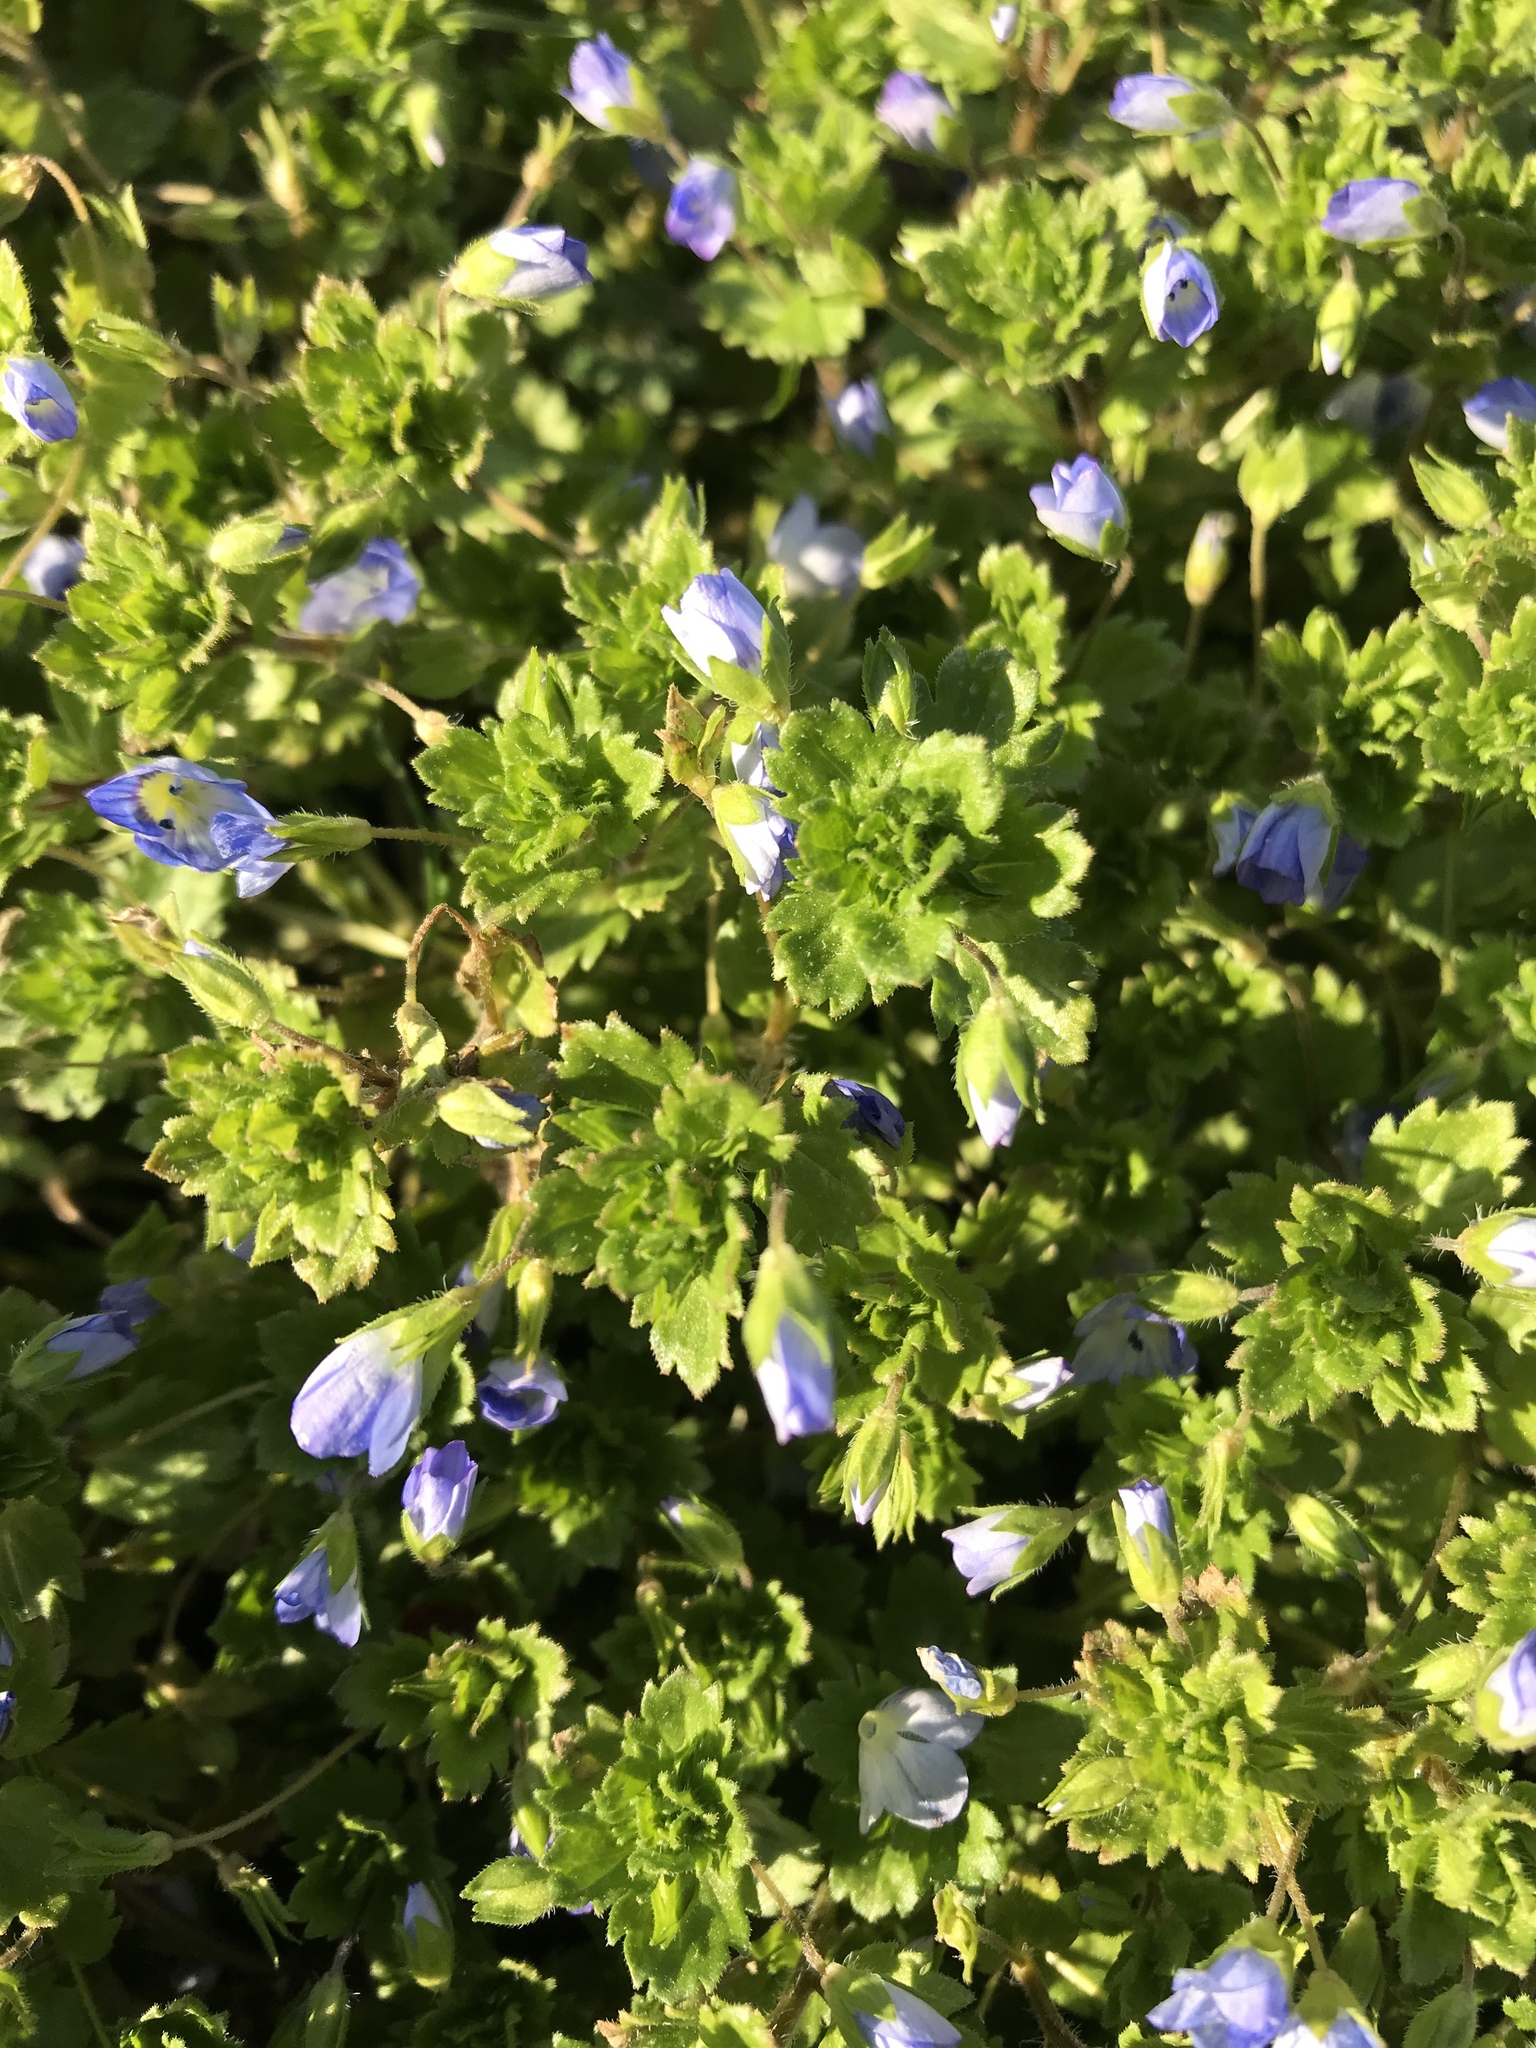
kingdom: Plantae
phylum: Tracheophyta
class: Magnoliopsida
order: Lamiales
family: Plantaginaceae
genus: Veronica
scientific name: Veronica persica
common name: Common field-speedwell
